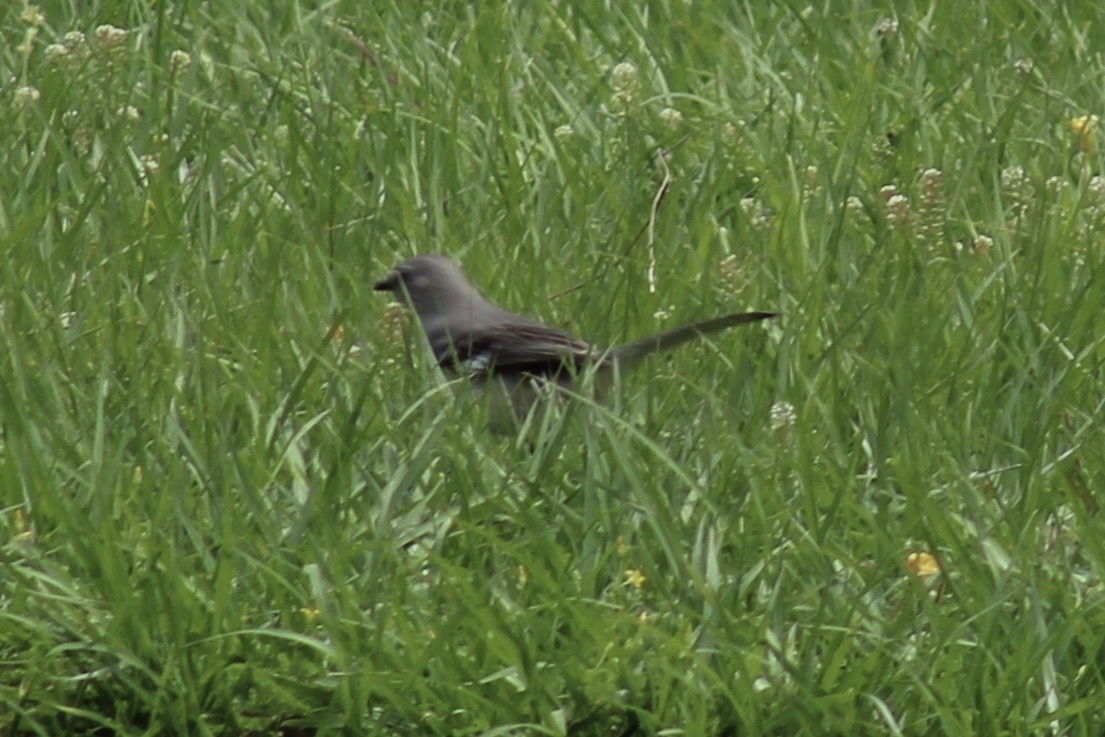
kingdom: Animalia
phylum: Chordata
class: Aves
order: Passeriformes
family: Mimidae
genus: Mimus
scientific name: Mimus polyglottos
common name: Northern mockingbird
